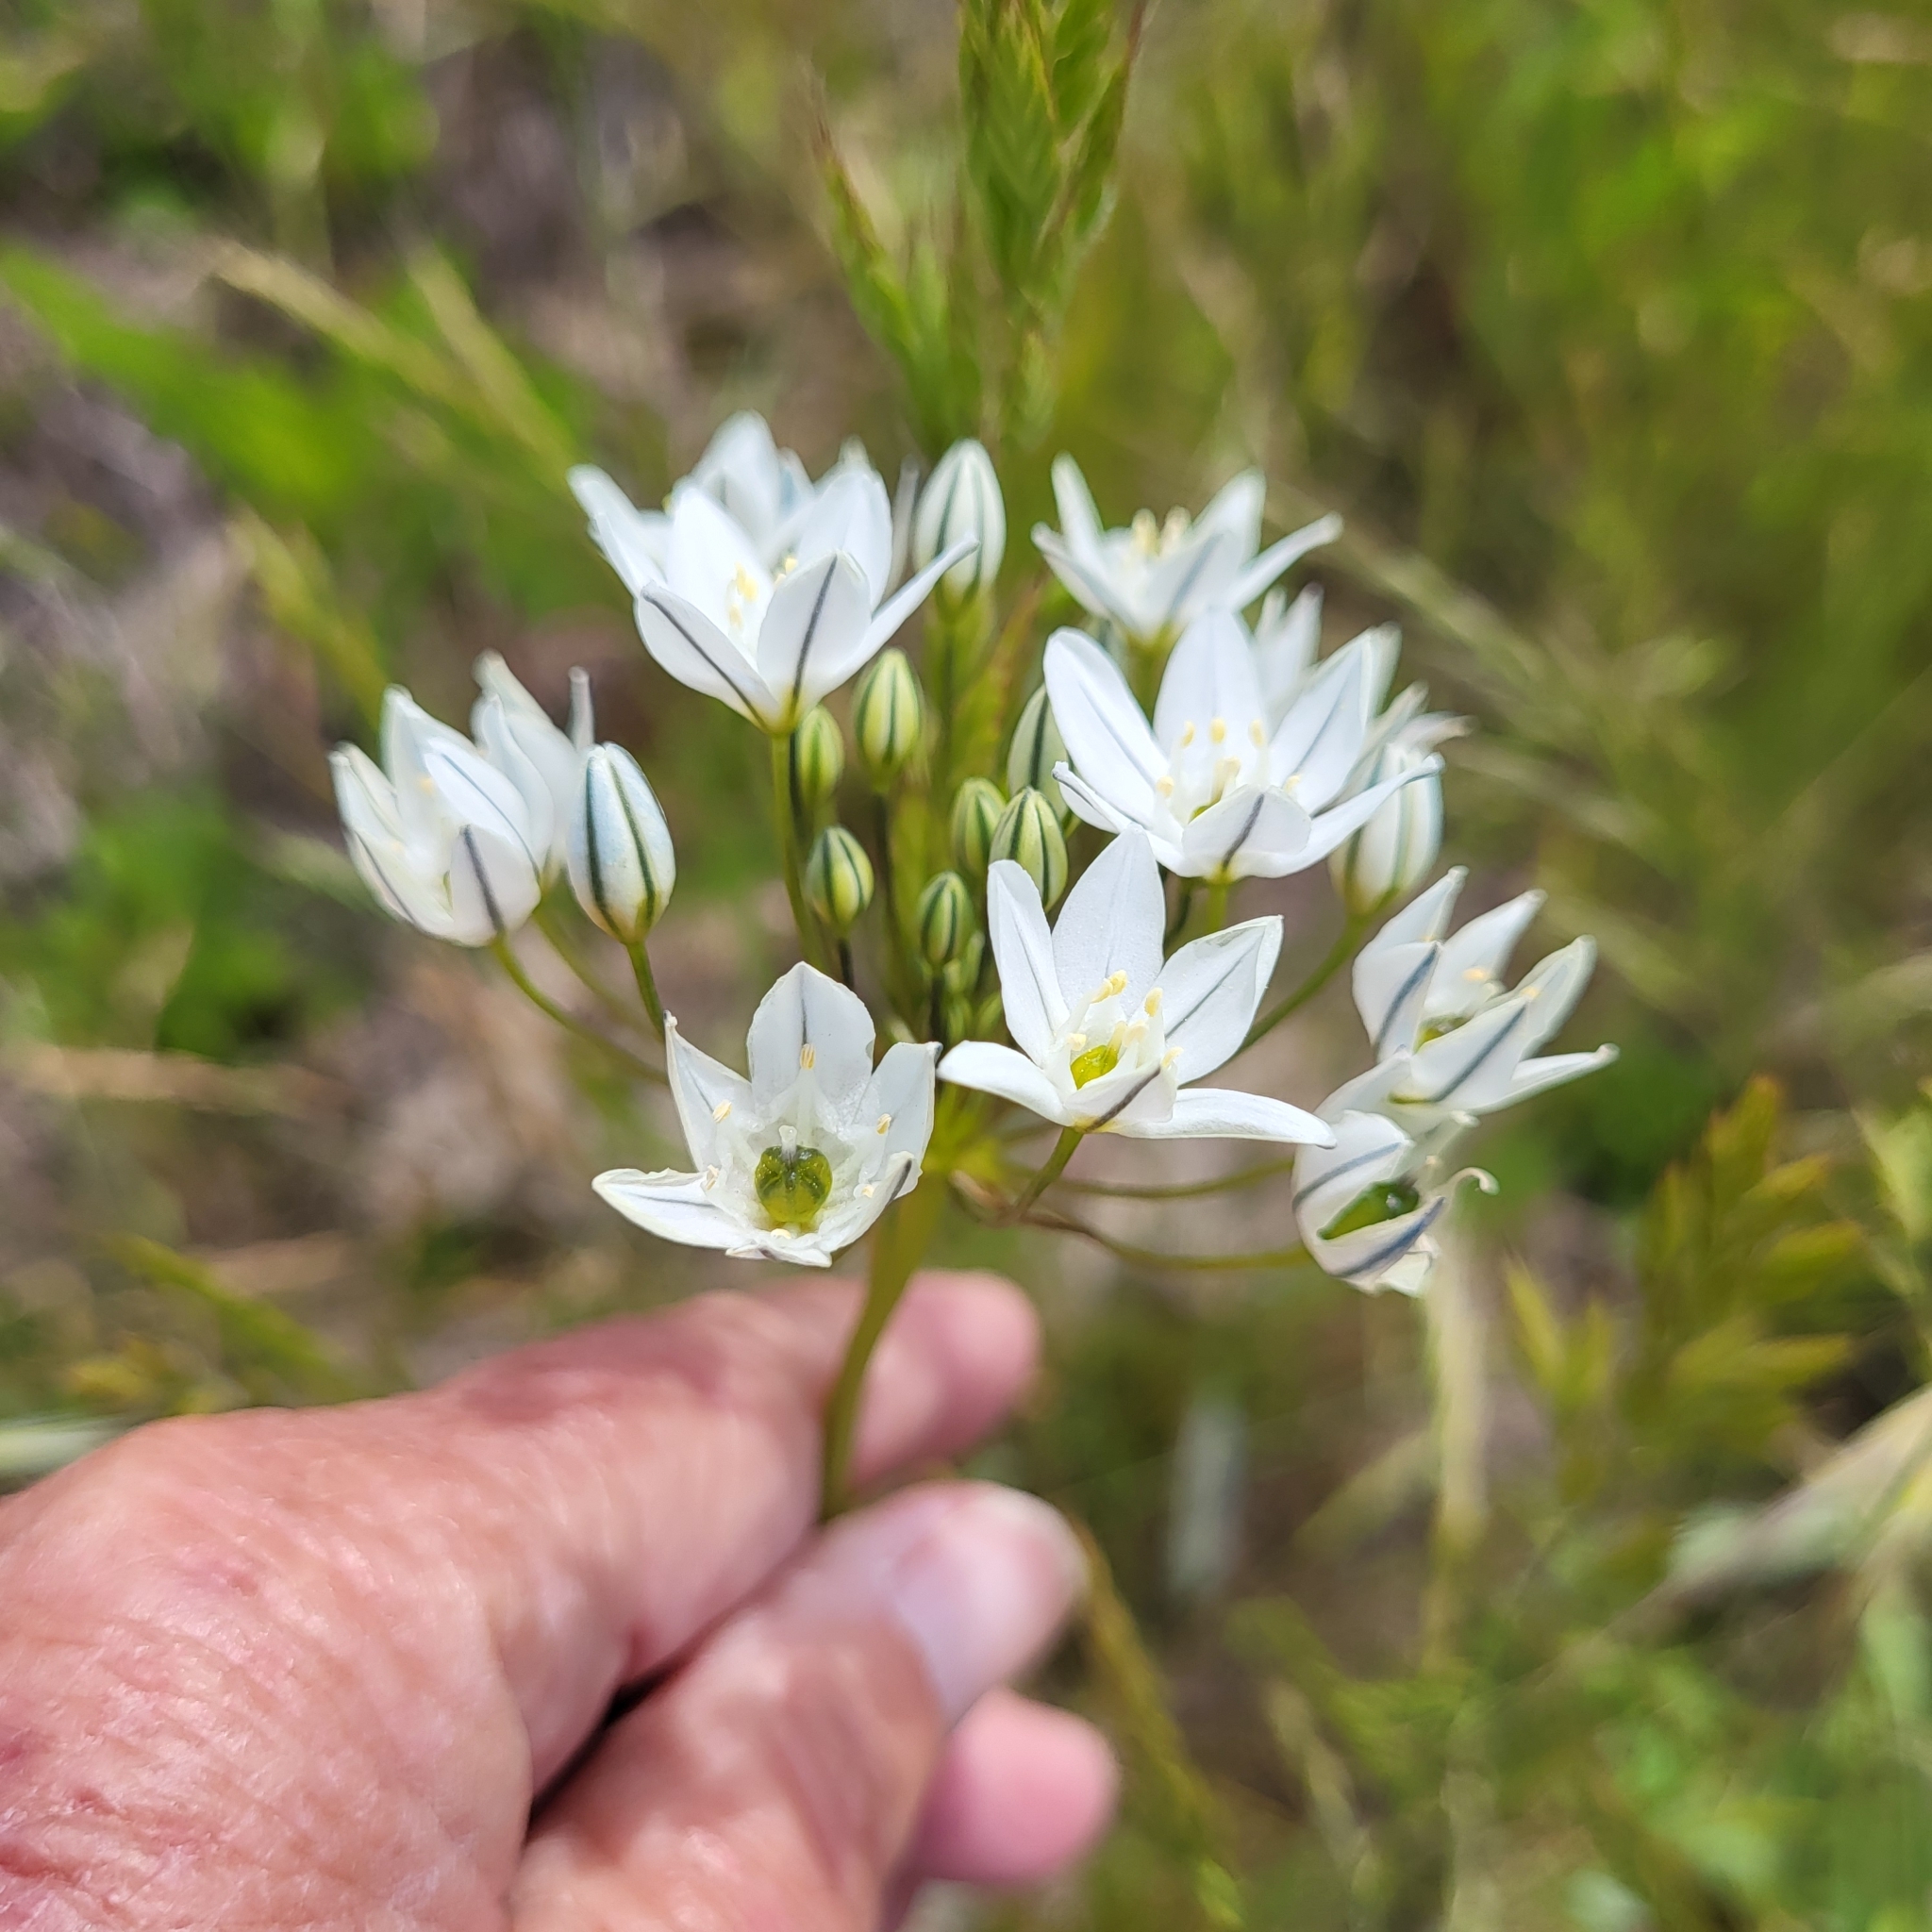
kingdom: Plantae
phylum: Tracheophyta
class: Liliopsida
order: Asparagales
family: Asparagaceae
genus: Triteleia
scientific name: Triteleia hyacinthina
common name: White brodiaea
